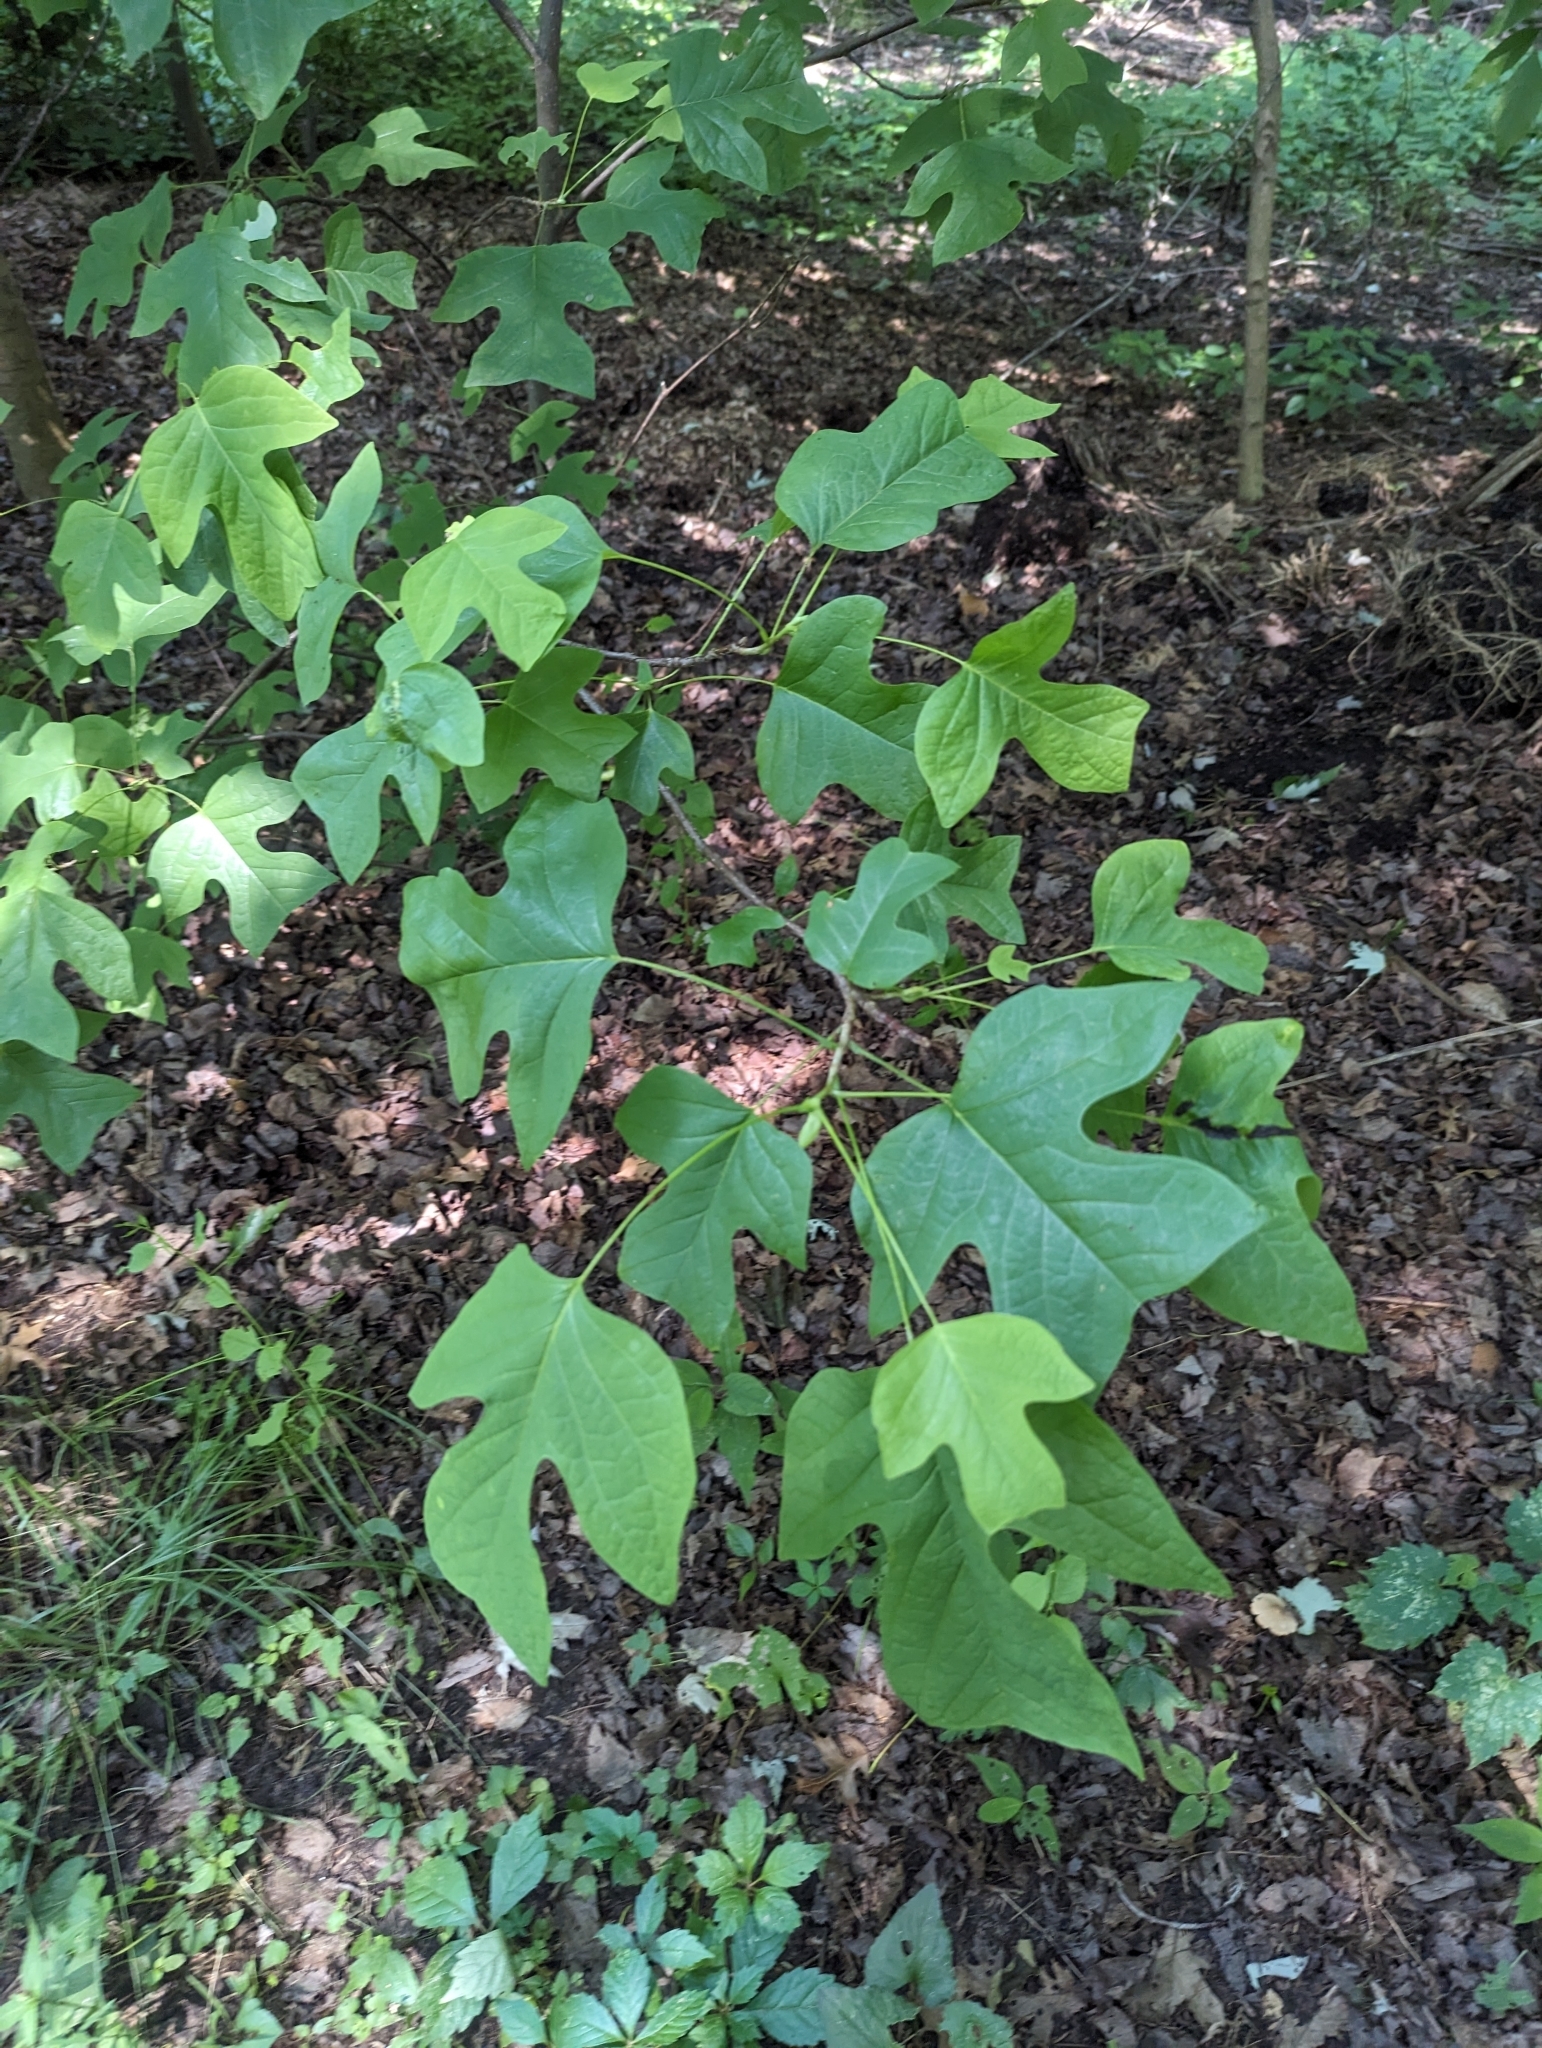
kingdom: Plantae
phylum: Tracheophyta
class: Magnoliopsida
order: Magnoliales
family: Magnoliaceae
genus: Liriodendron
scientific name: Liriodendron tulipifera
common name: Tulip tree
